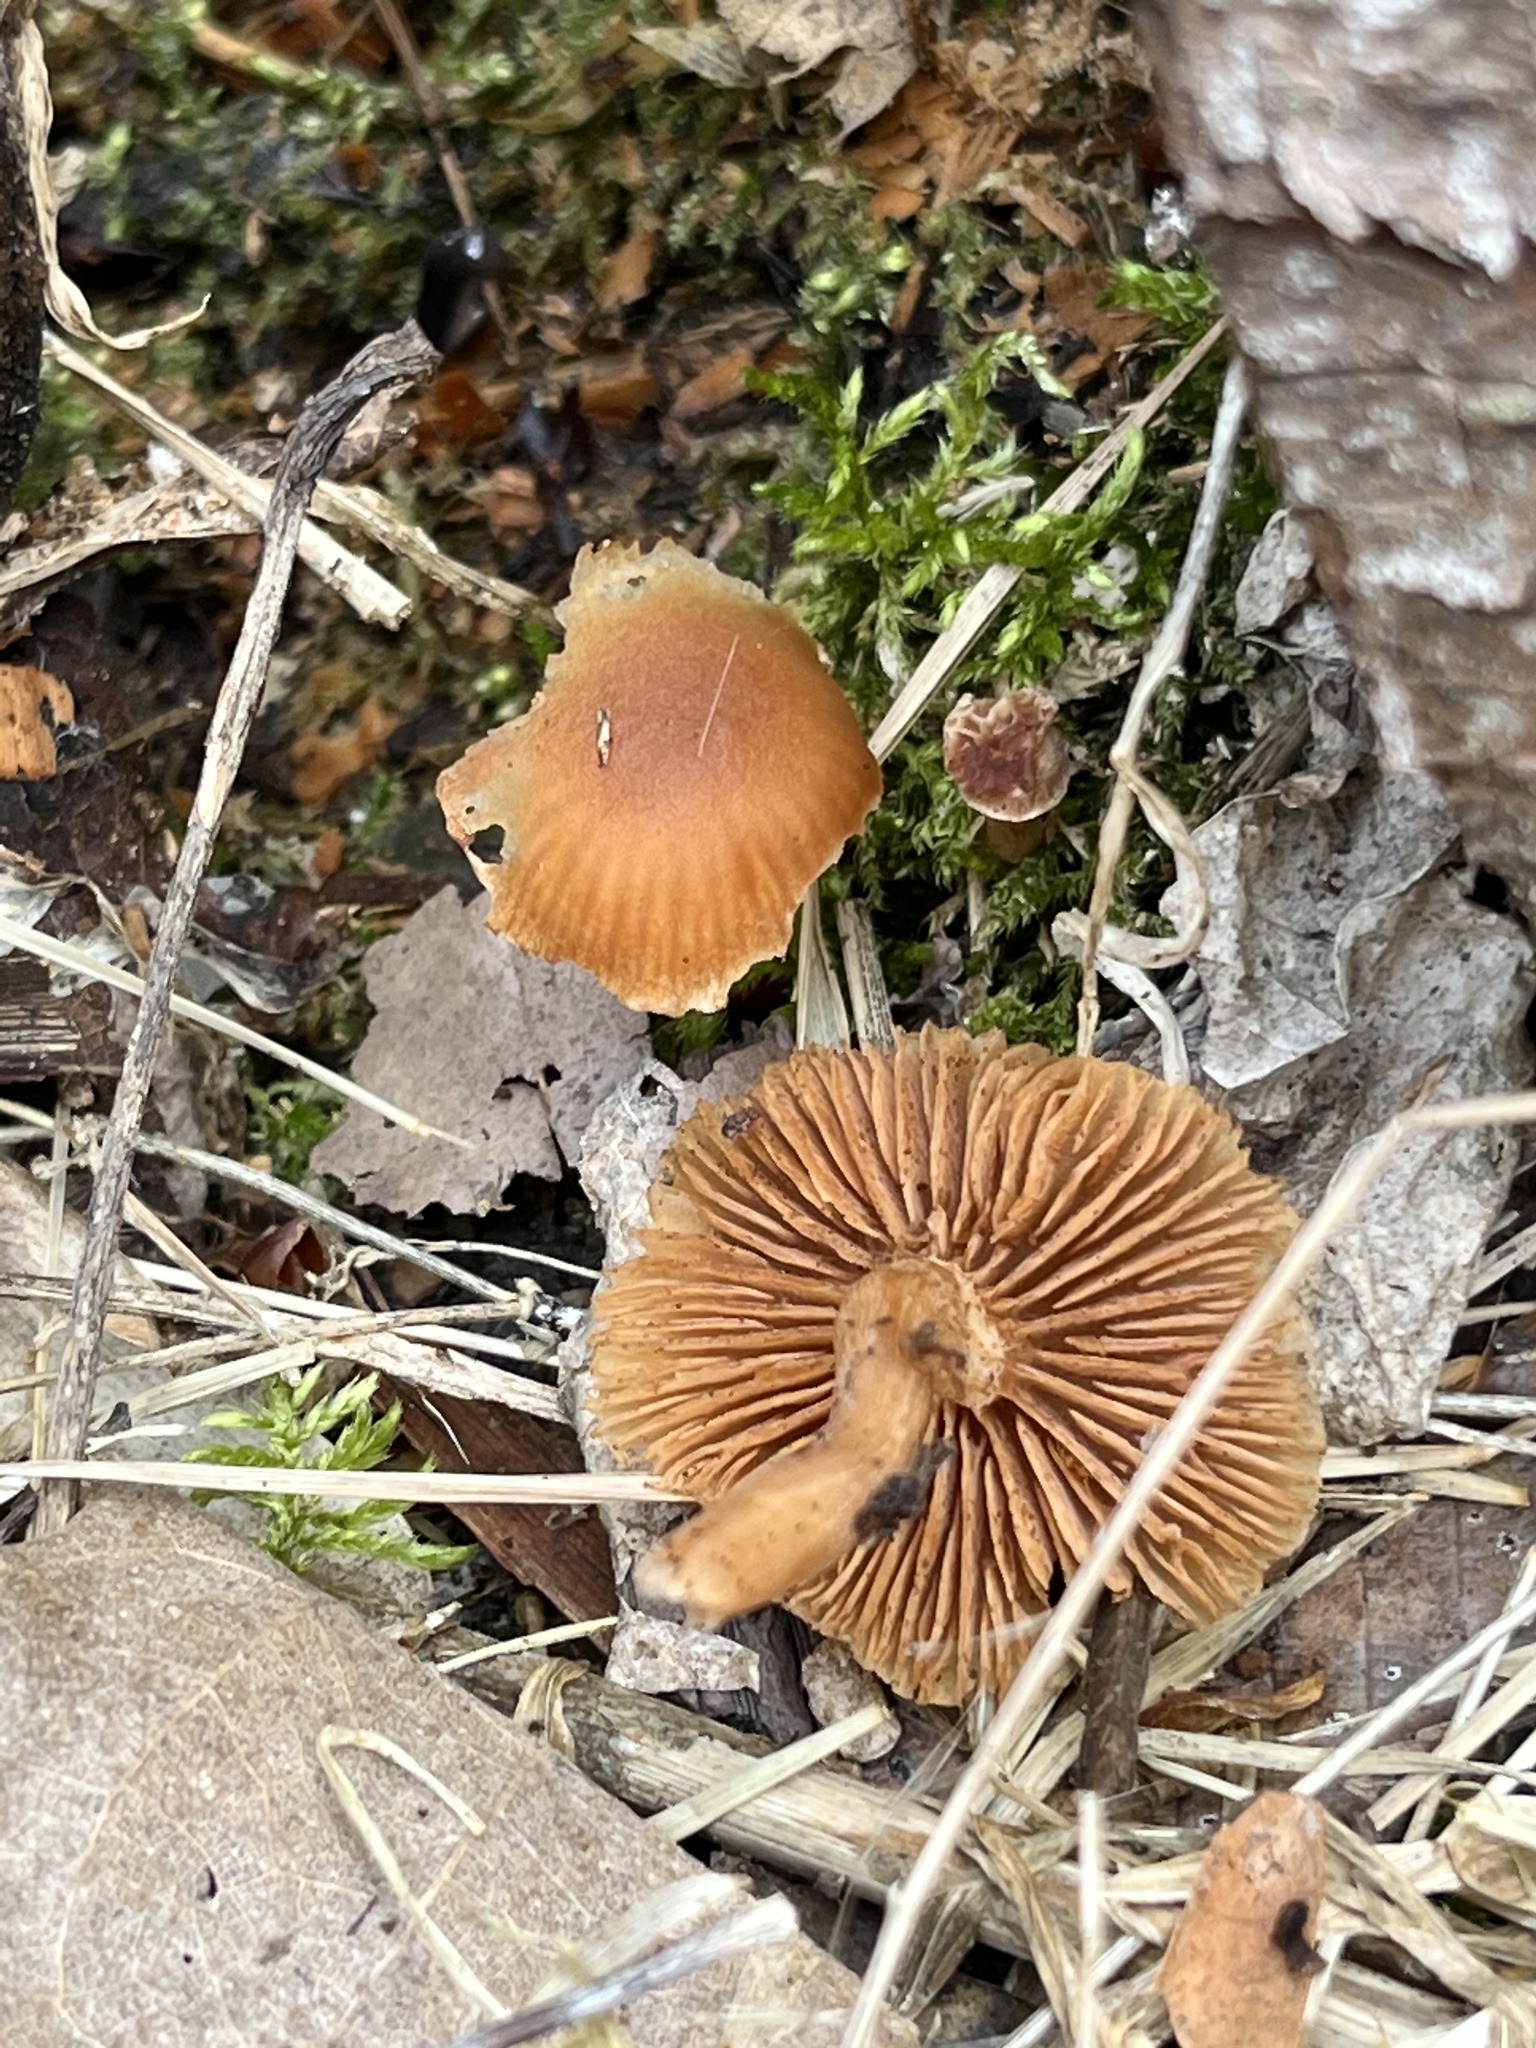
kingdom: Fungi
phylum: Basidiomycota
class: Agaricomycetes
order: Agaricales
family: Tubariaceae
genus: Tubaria
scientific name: Tubaria furfuracea
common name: Scurfy twiglet
